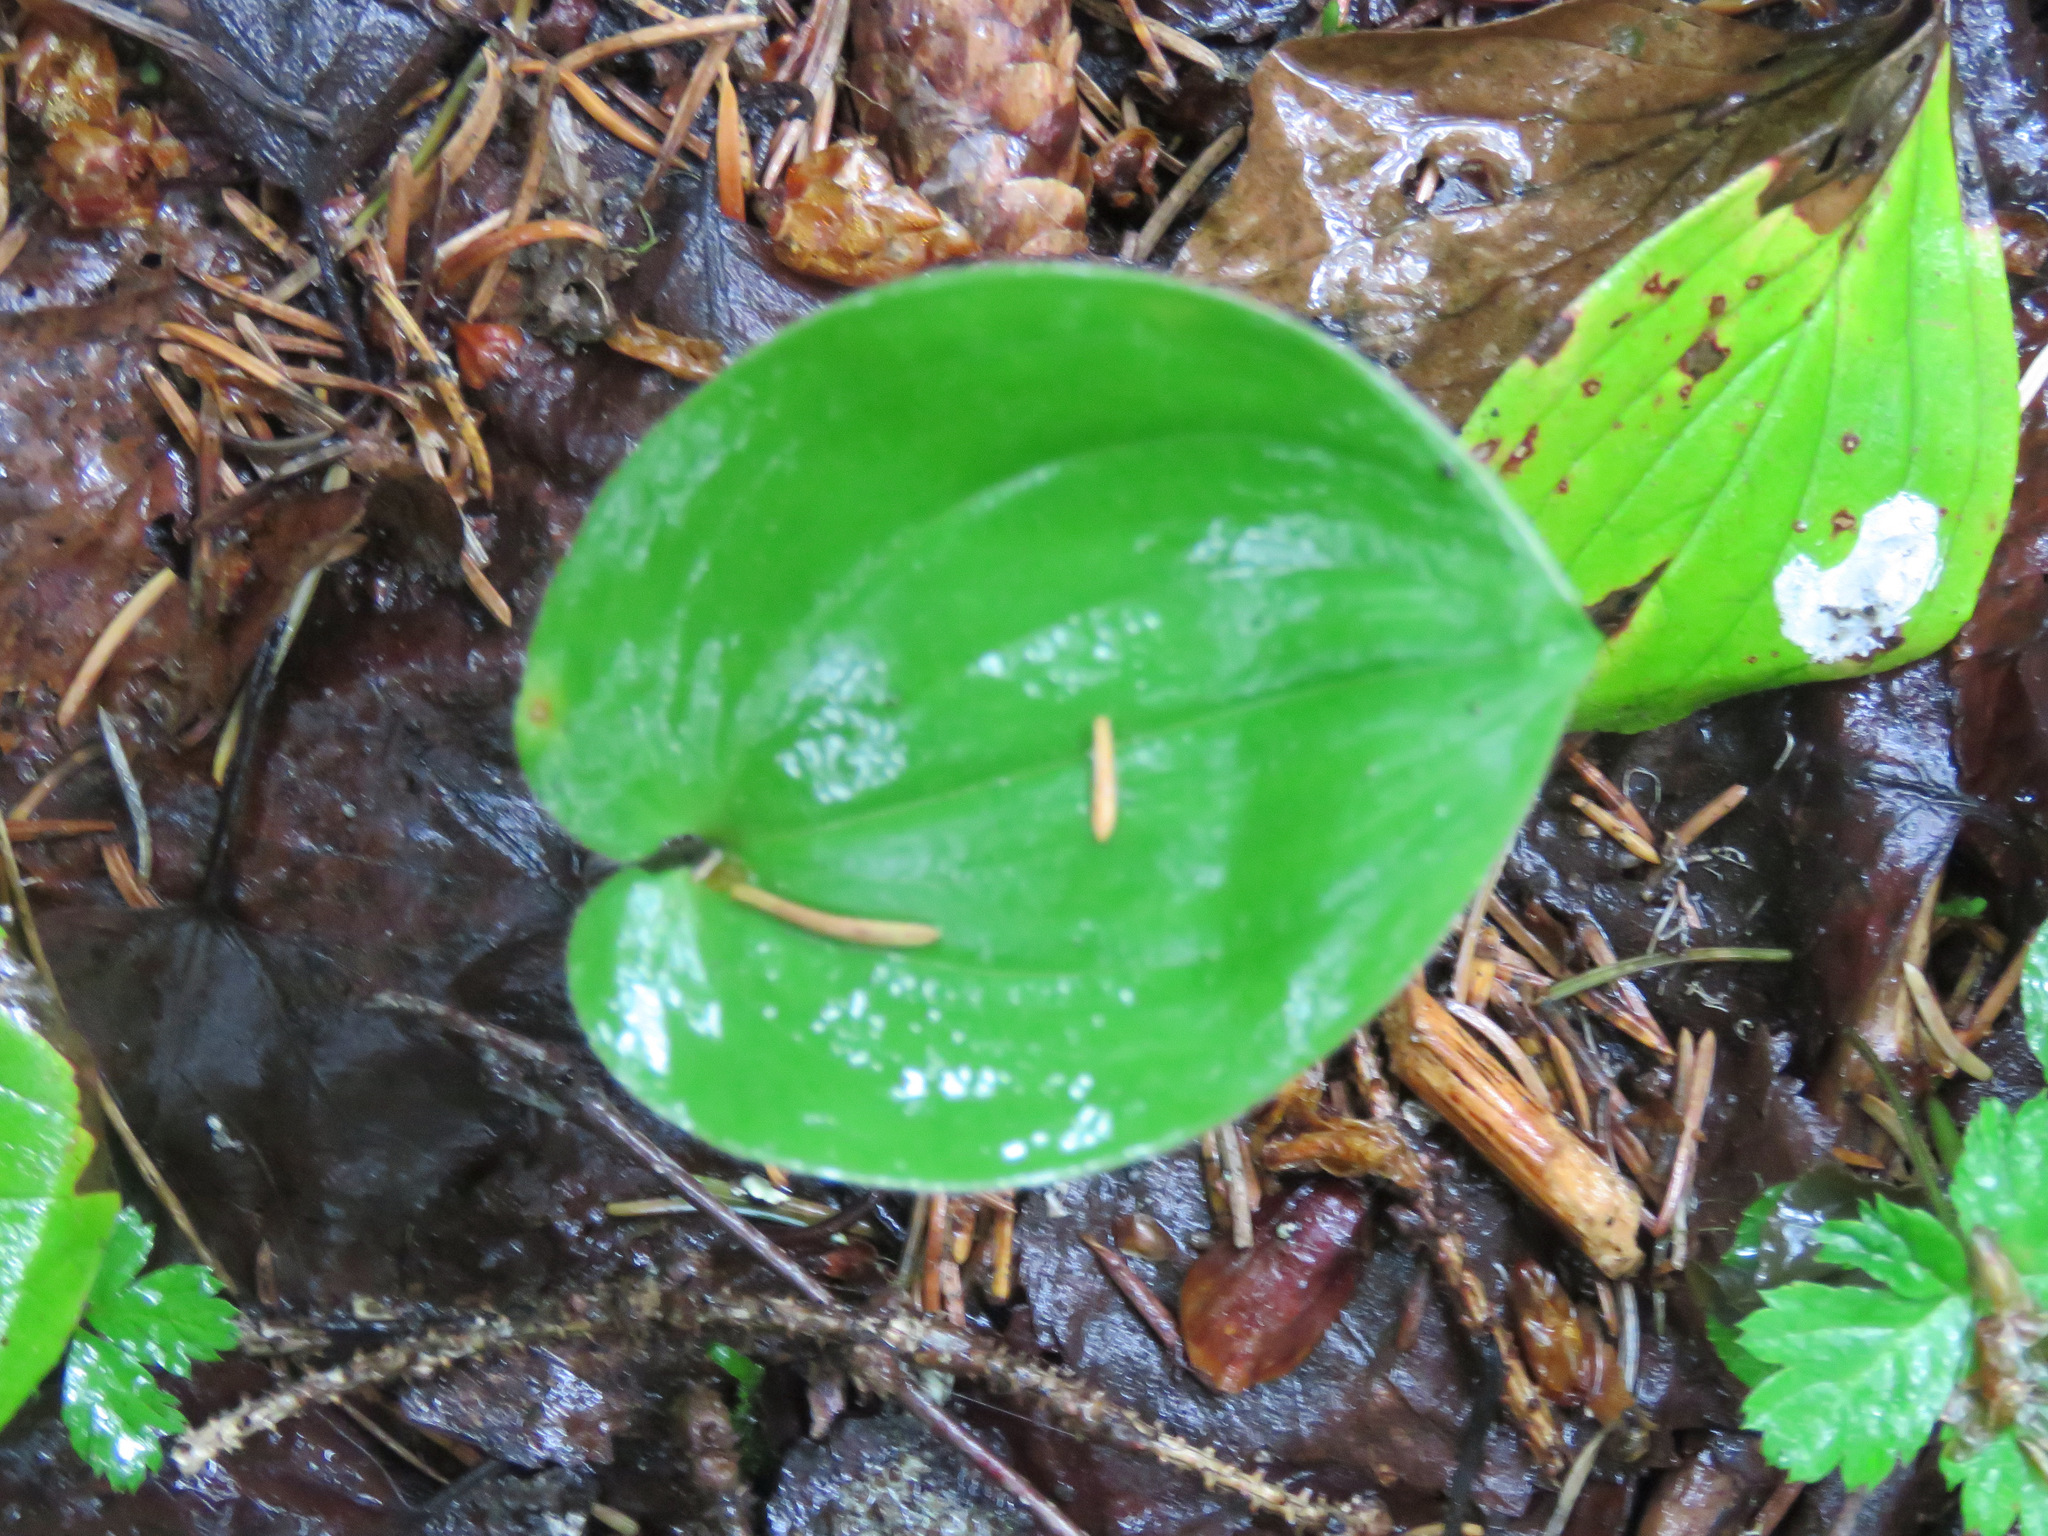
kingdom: Plantae
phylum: Tracheophyta
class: Liliopsida
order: Asparagales
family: Asparagaceae
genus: Maianthemum
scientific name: Maianthemum canadense
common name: False lily-of-the-valley
